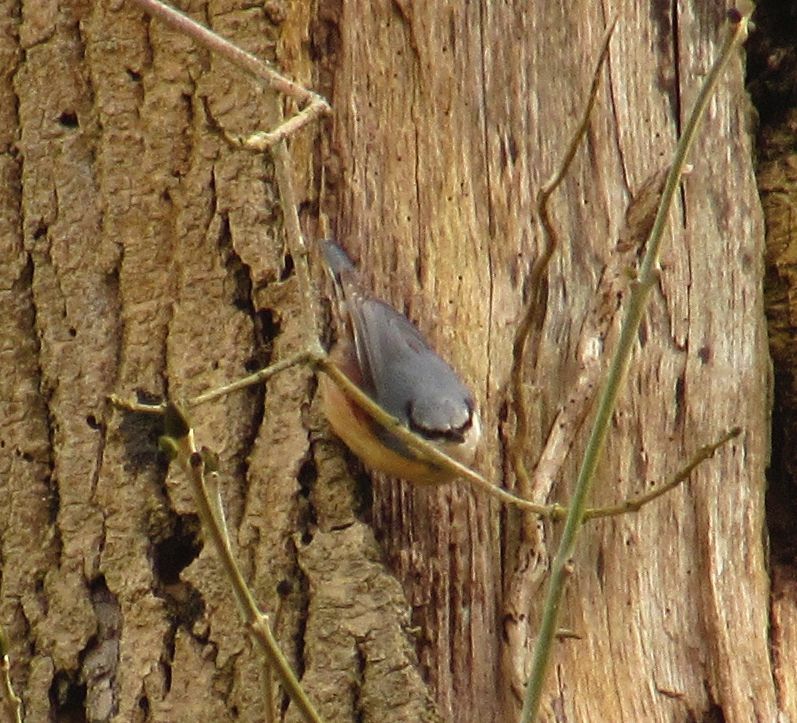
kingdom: Animalia
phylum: Chordata
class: Aves
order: Passeriformes
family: Sittidae
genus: Sitta
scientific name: Sitta europaea
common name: Eurasian nuthatch
